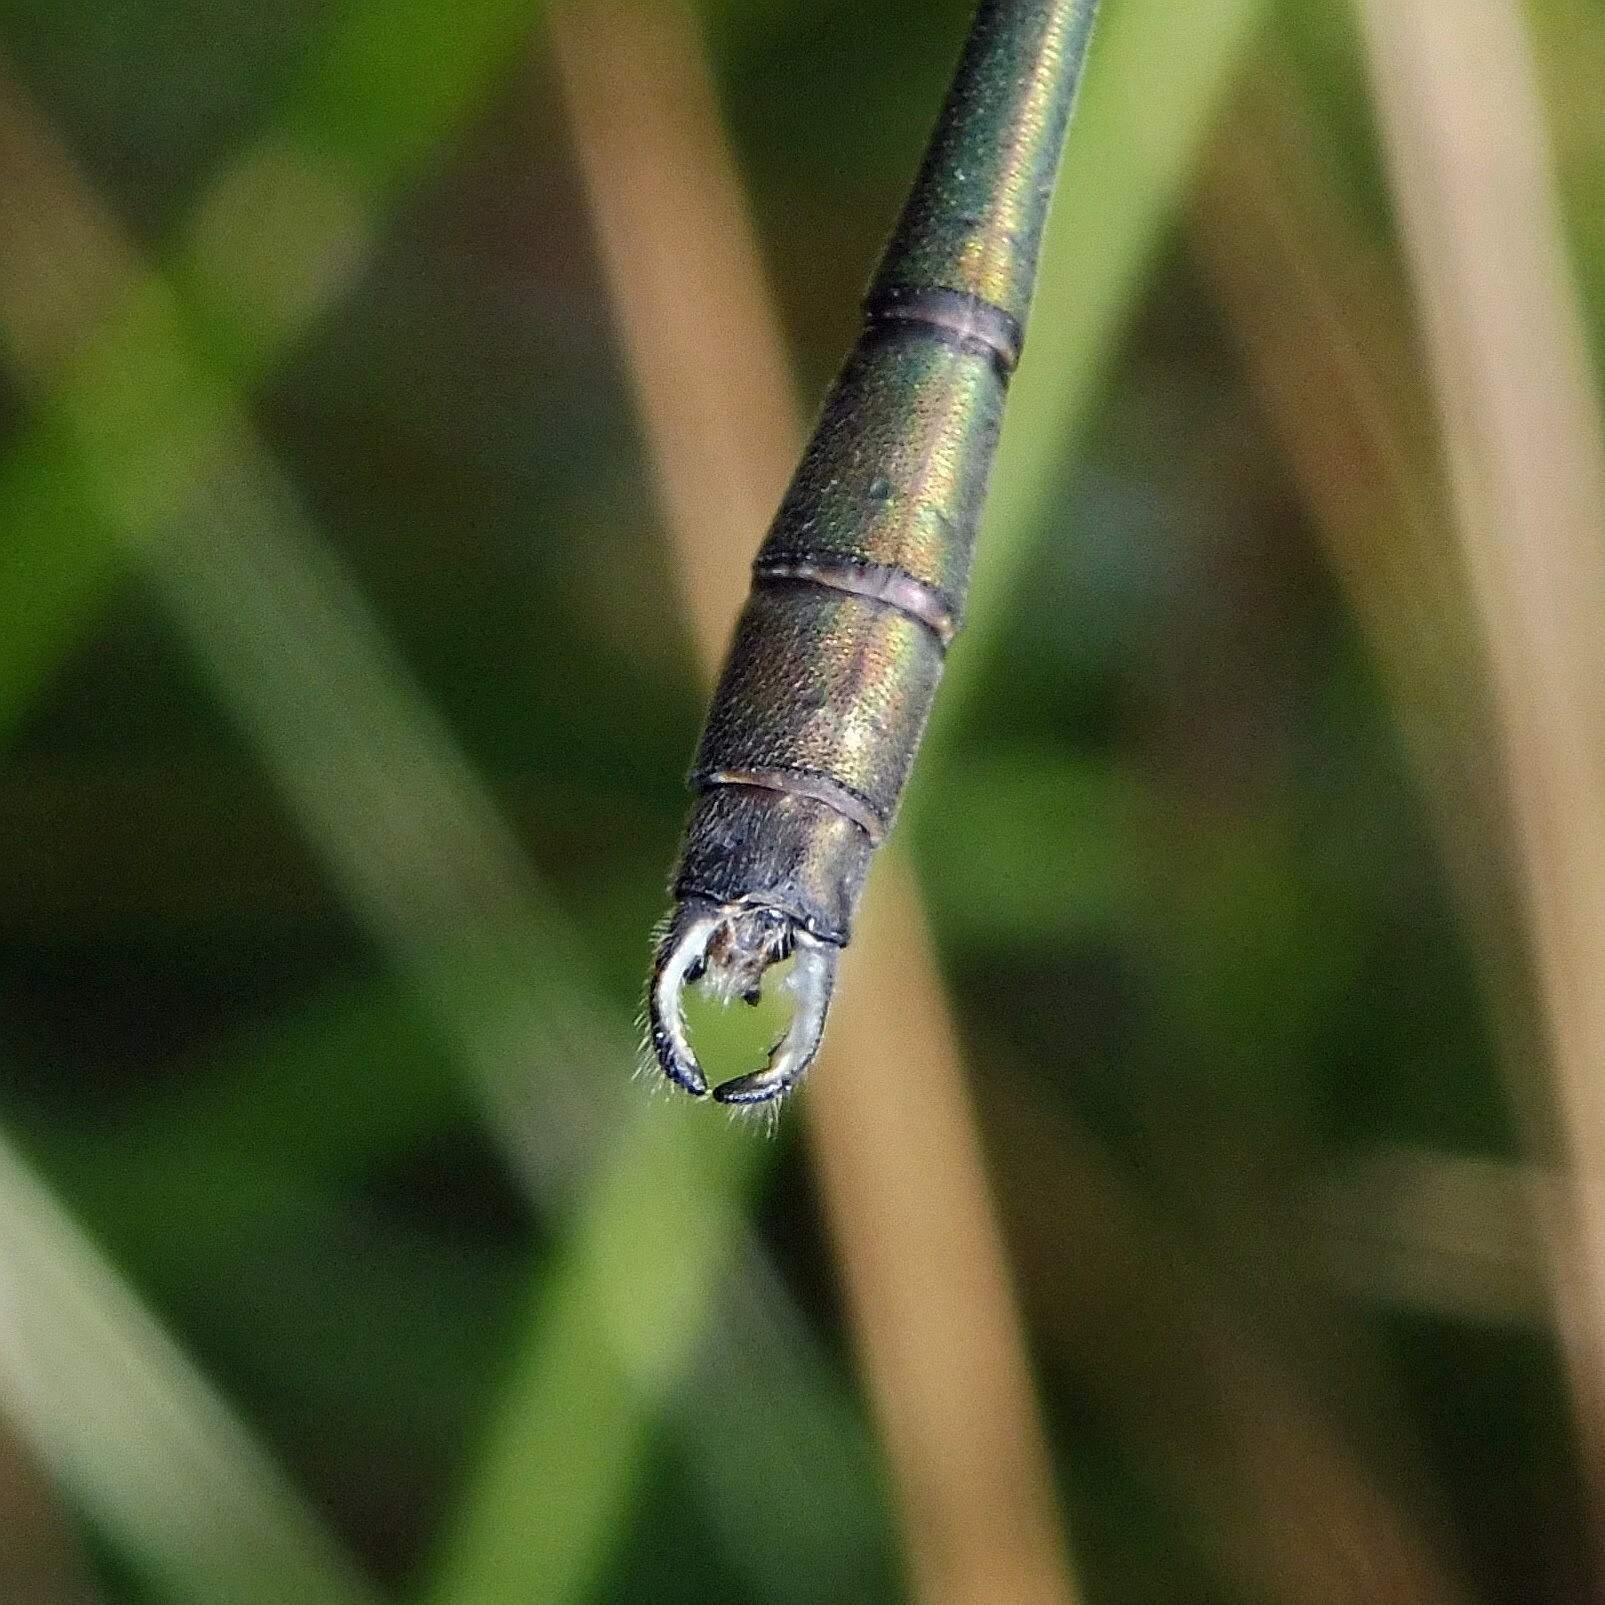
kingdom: Animalia
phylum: Arthropoda
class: Insecta
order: Odonata
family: Lestidae
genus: Chalcolestes
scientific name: Chalcolestes viridis
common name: Green emerald damselfly
